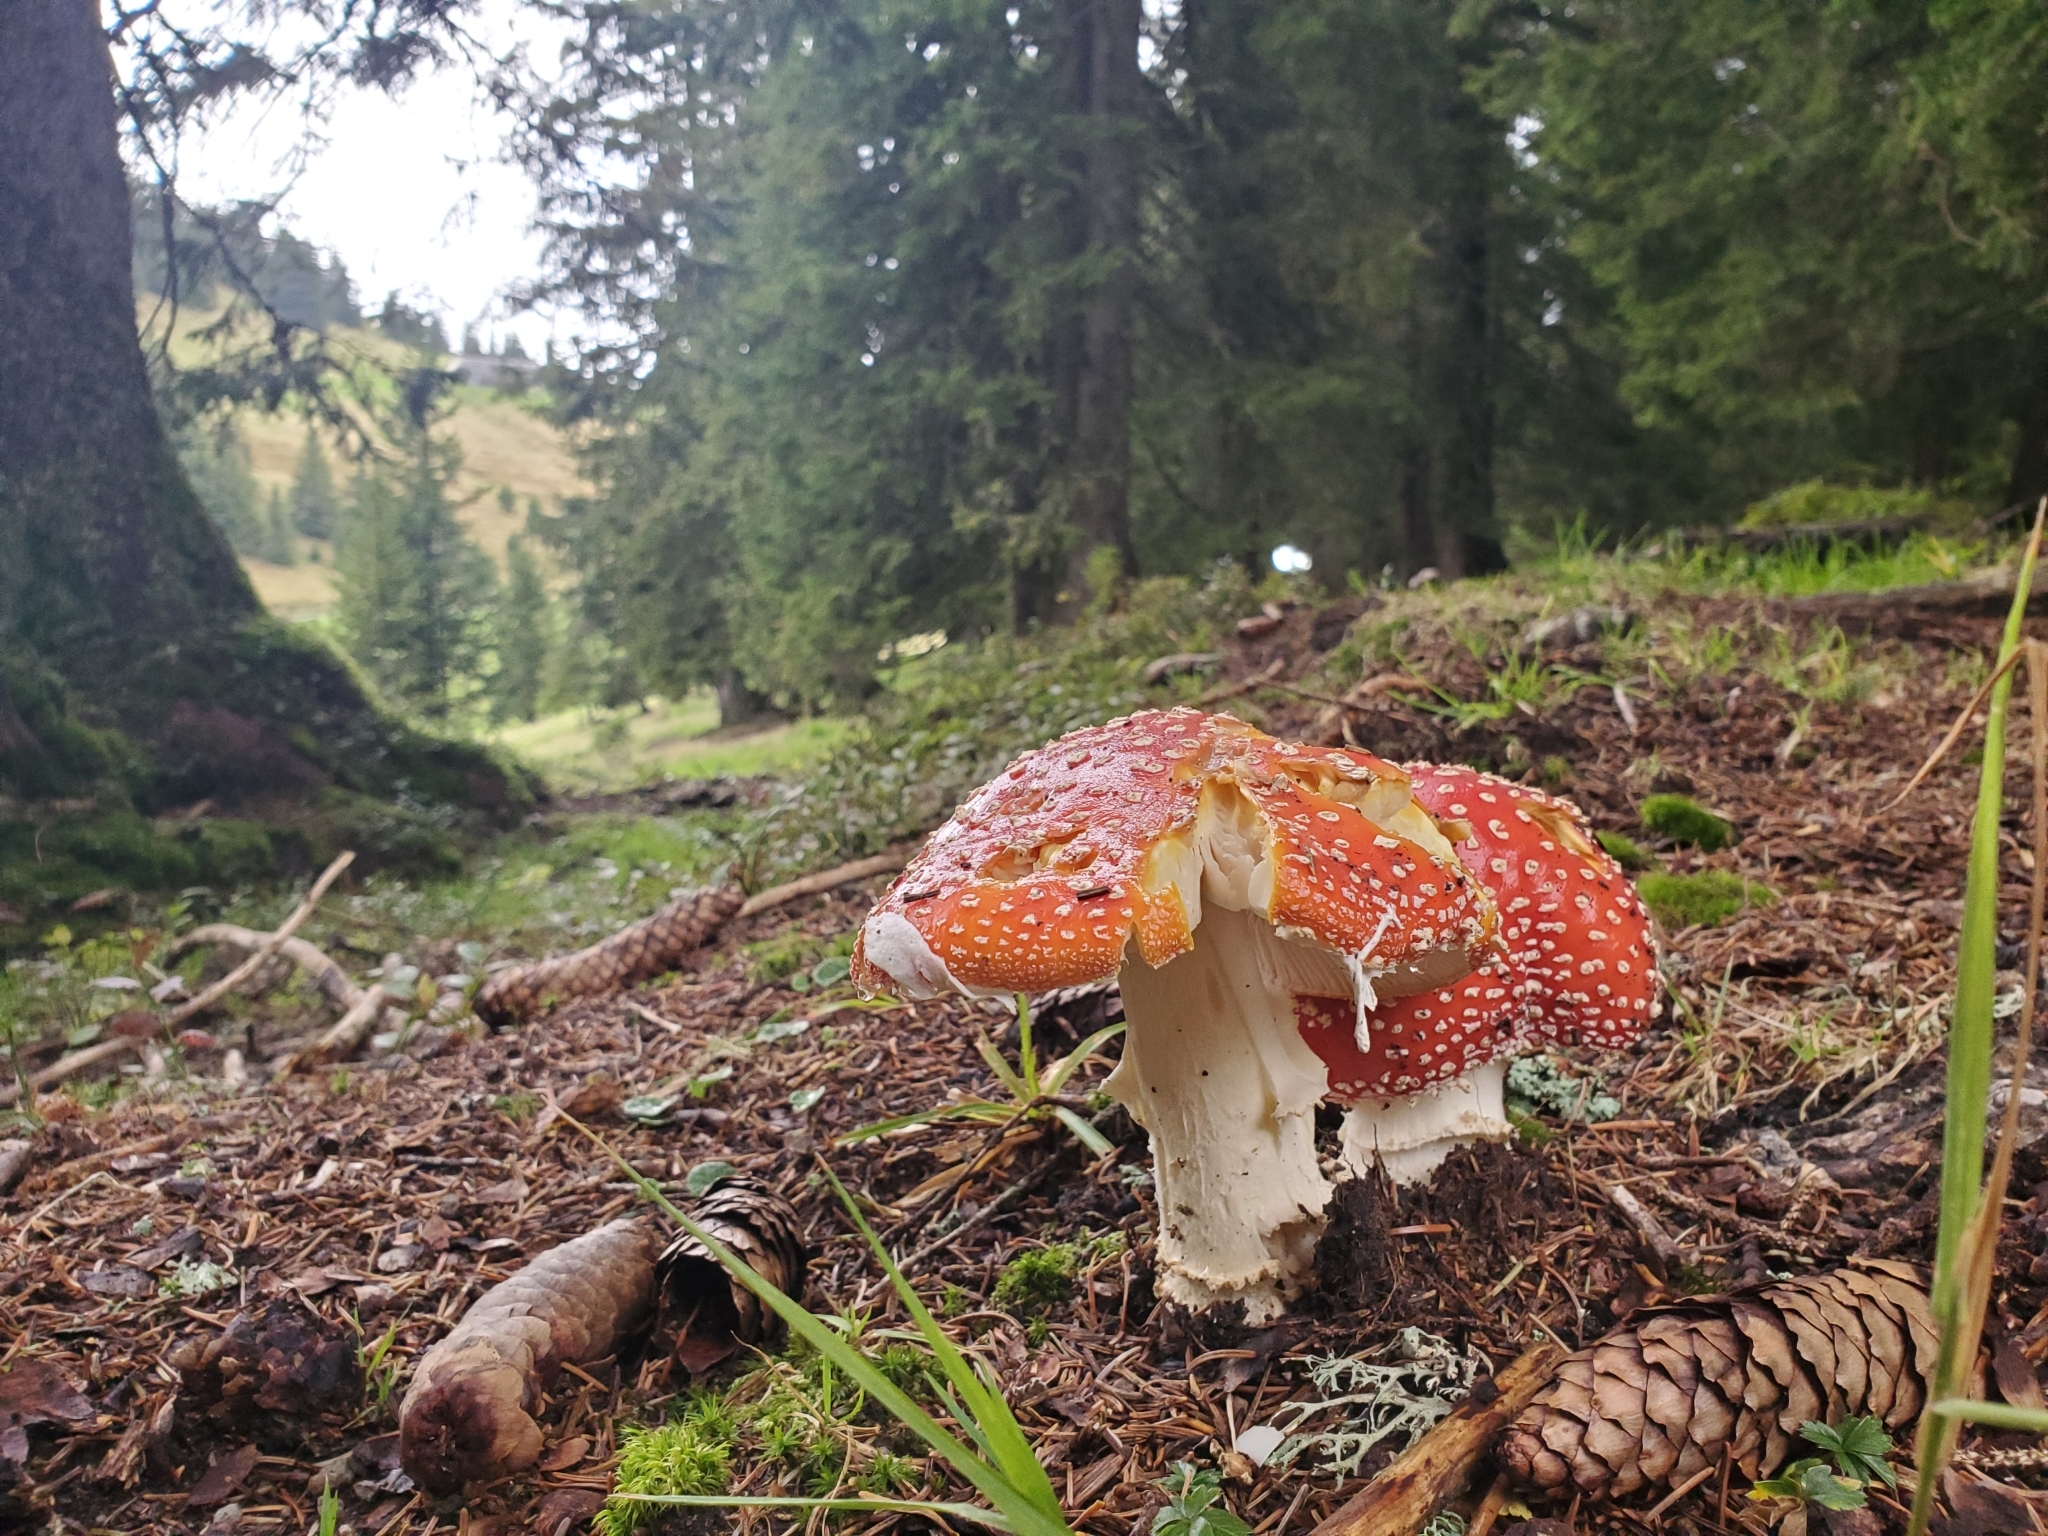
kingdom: Fungi
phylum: Basidiomycota
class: Agaricomycetes
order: Agaricales
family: Amanitaceae
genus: Amanita
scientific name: Amanita muscaria
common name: Fly agaric
